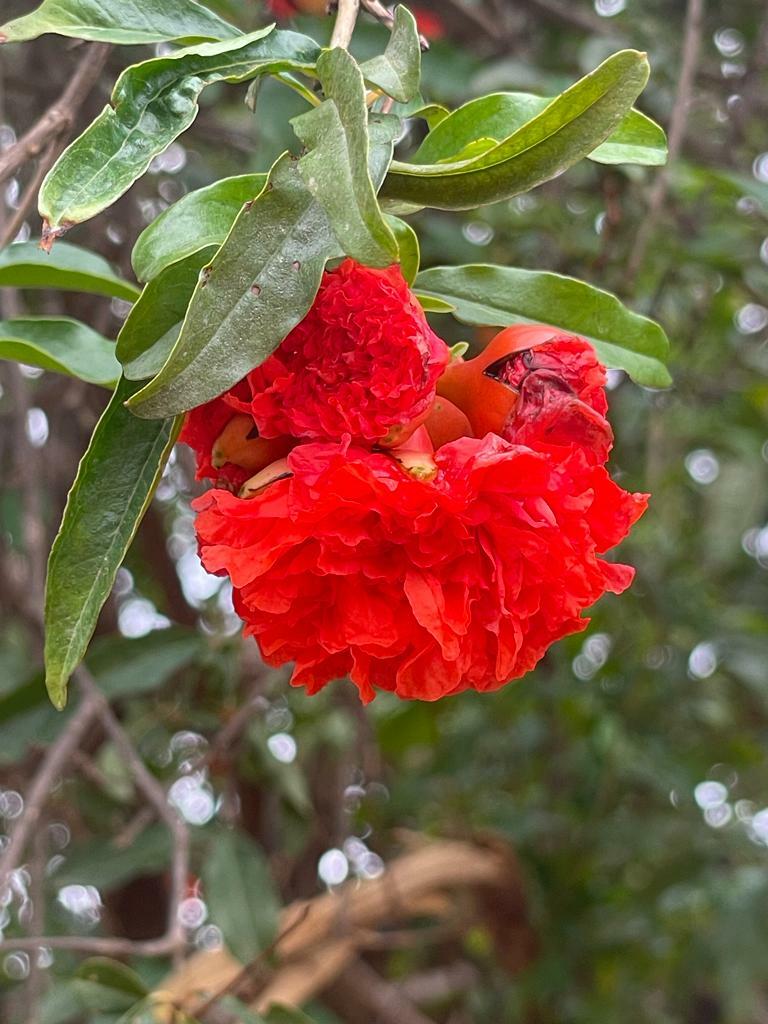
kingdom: Plantae
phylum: Tracheophyta
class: Magnoliopsida
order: Myrtales
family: Lythraceae
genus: Punica
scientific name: Punica granatum
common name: Pomegranate
